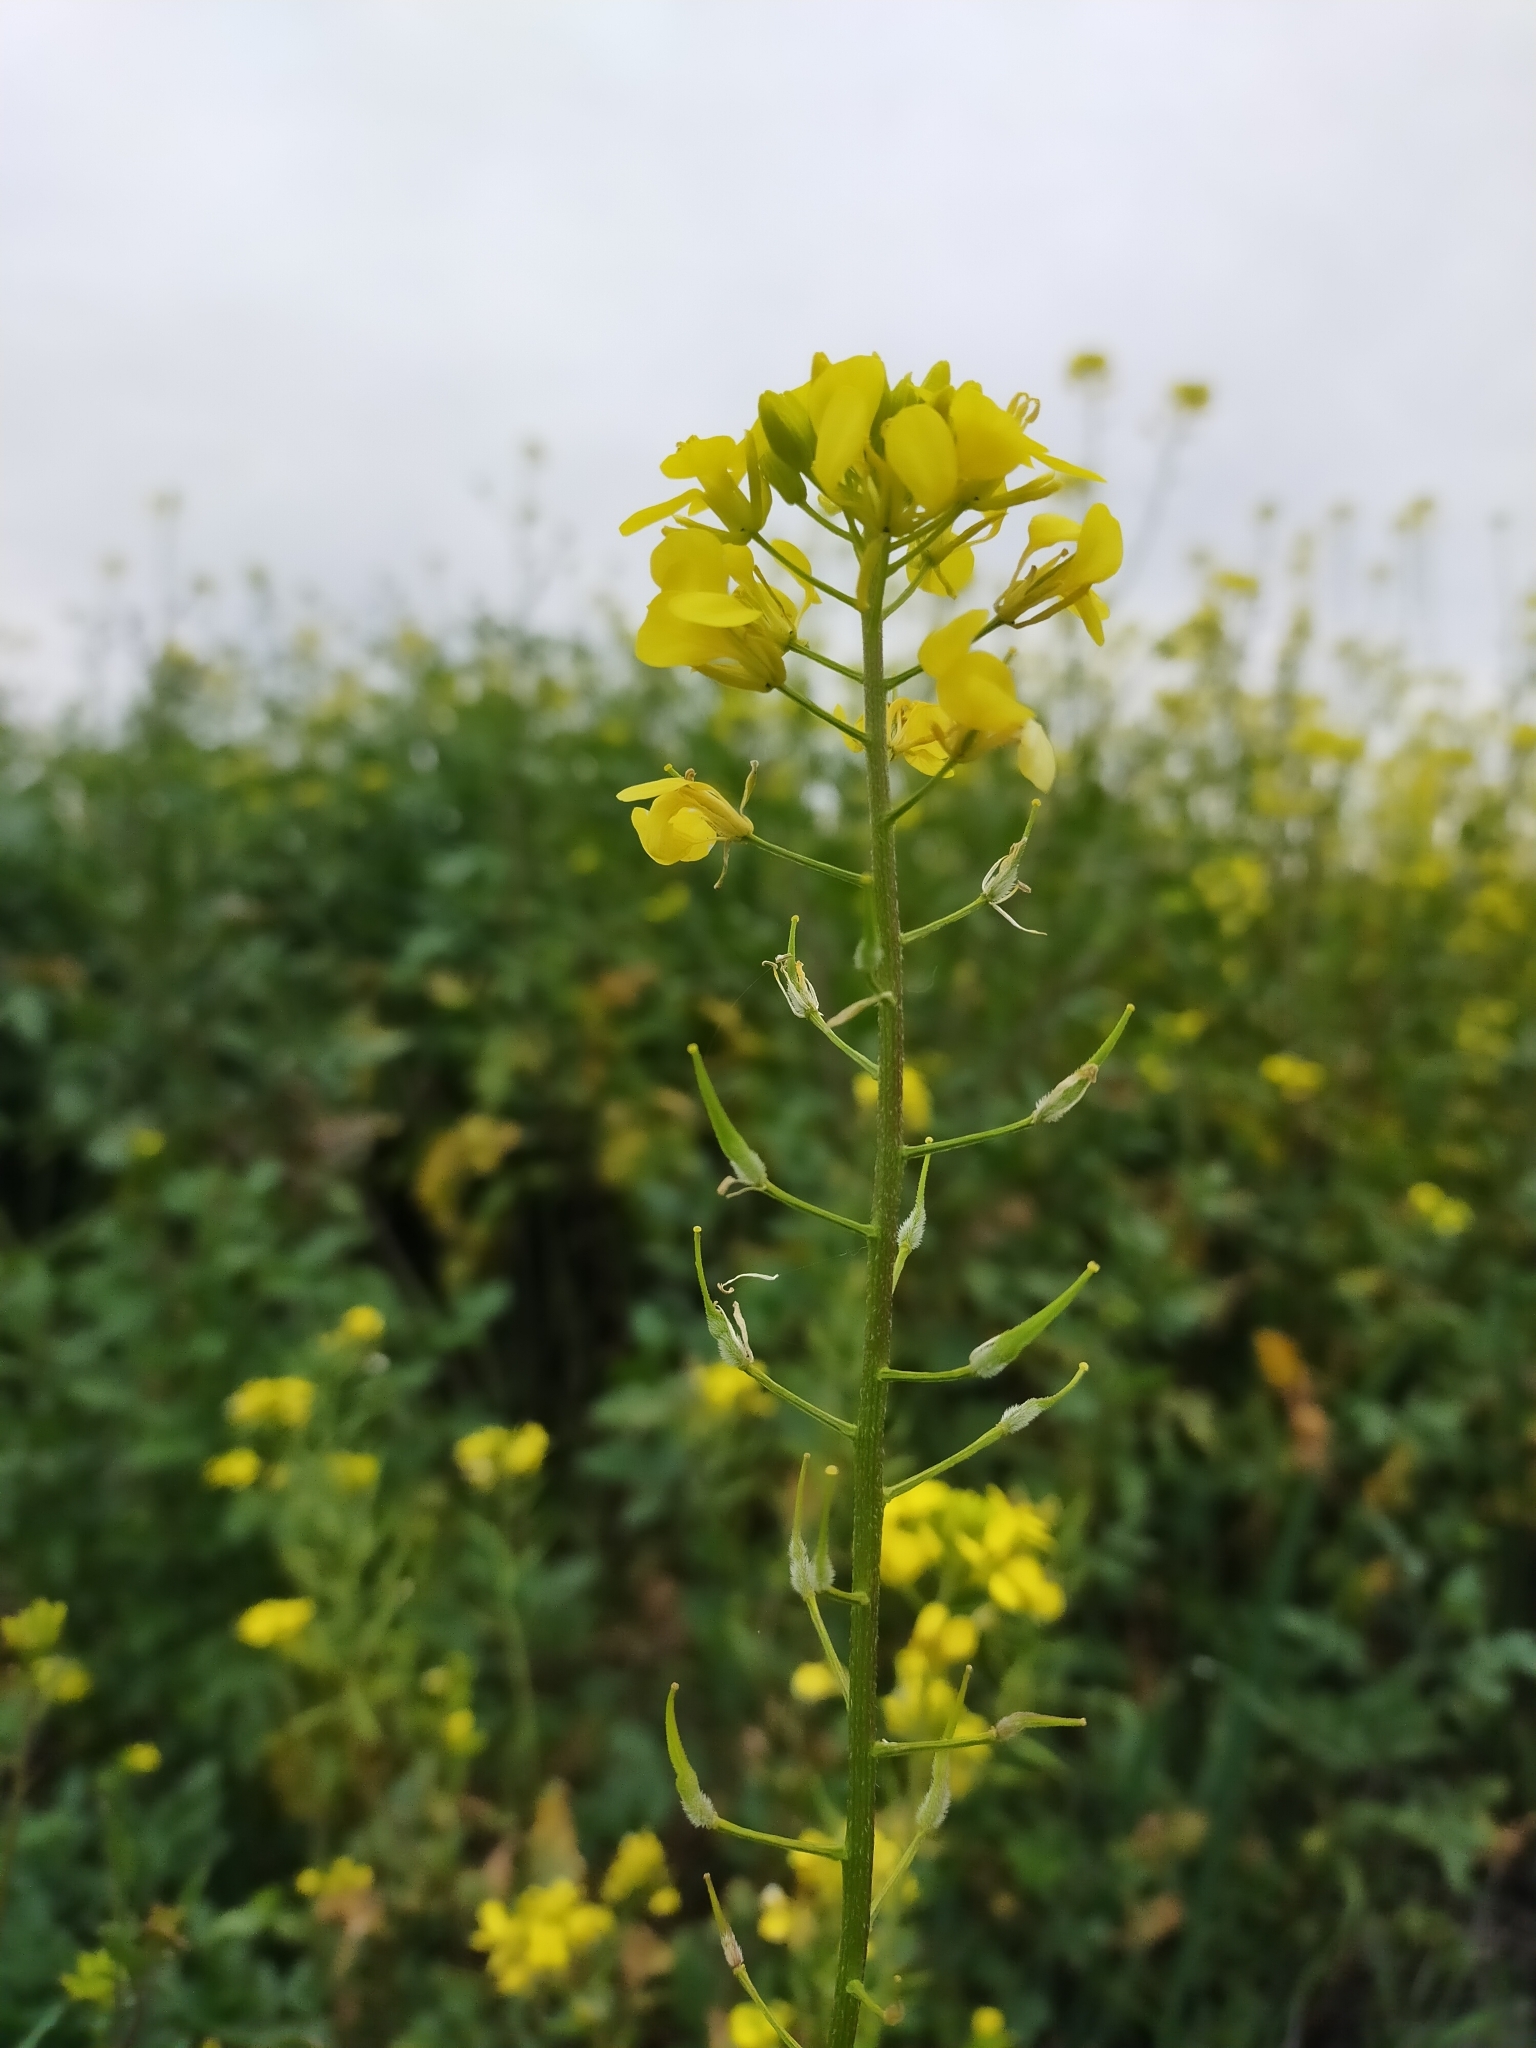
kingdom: Plantae
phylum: Tracheophyta
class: Magnoliopsida
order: Brassicales
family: Brassicaceae
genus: Sinapis
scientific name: Sinapis alba
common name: White mustard
